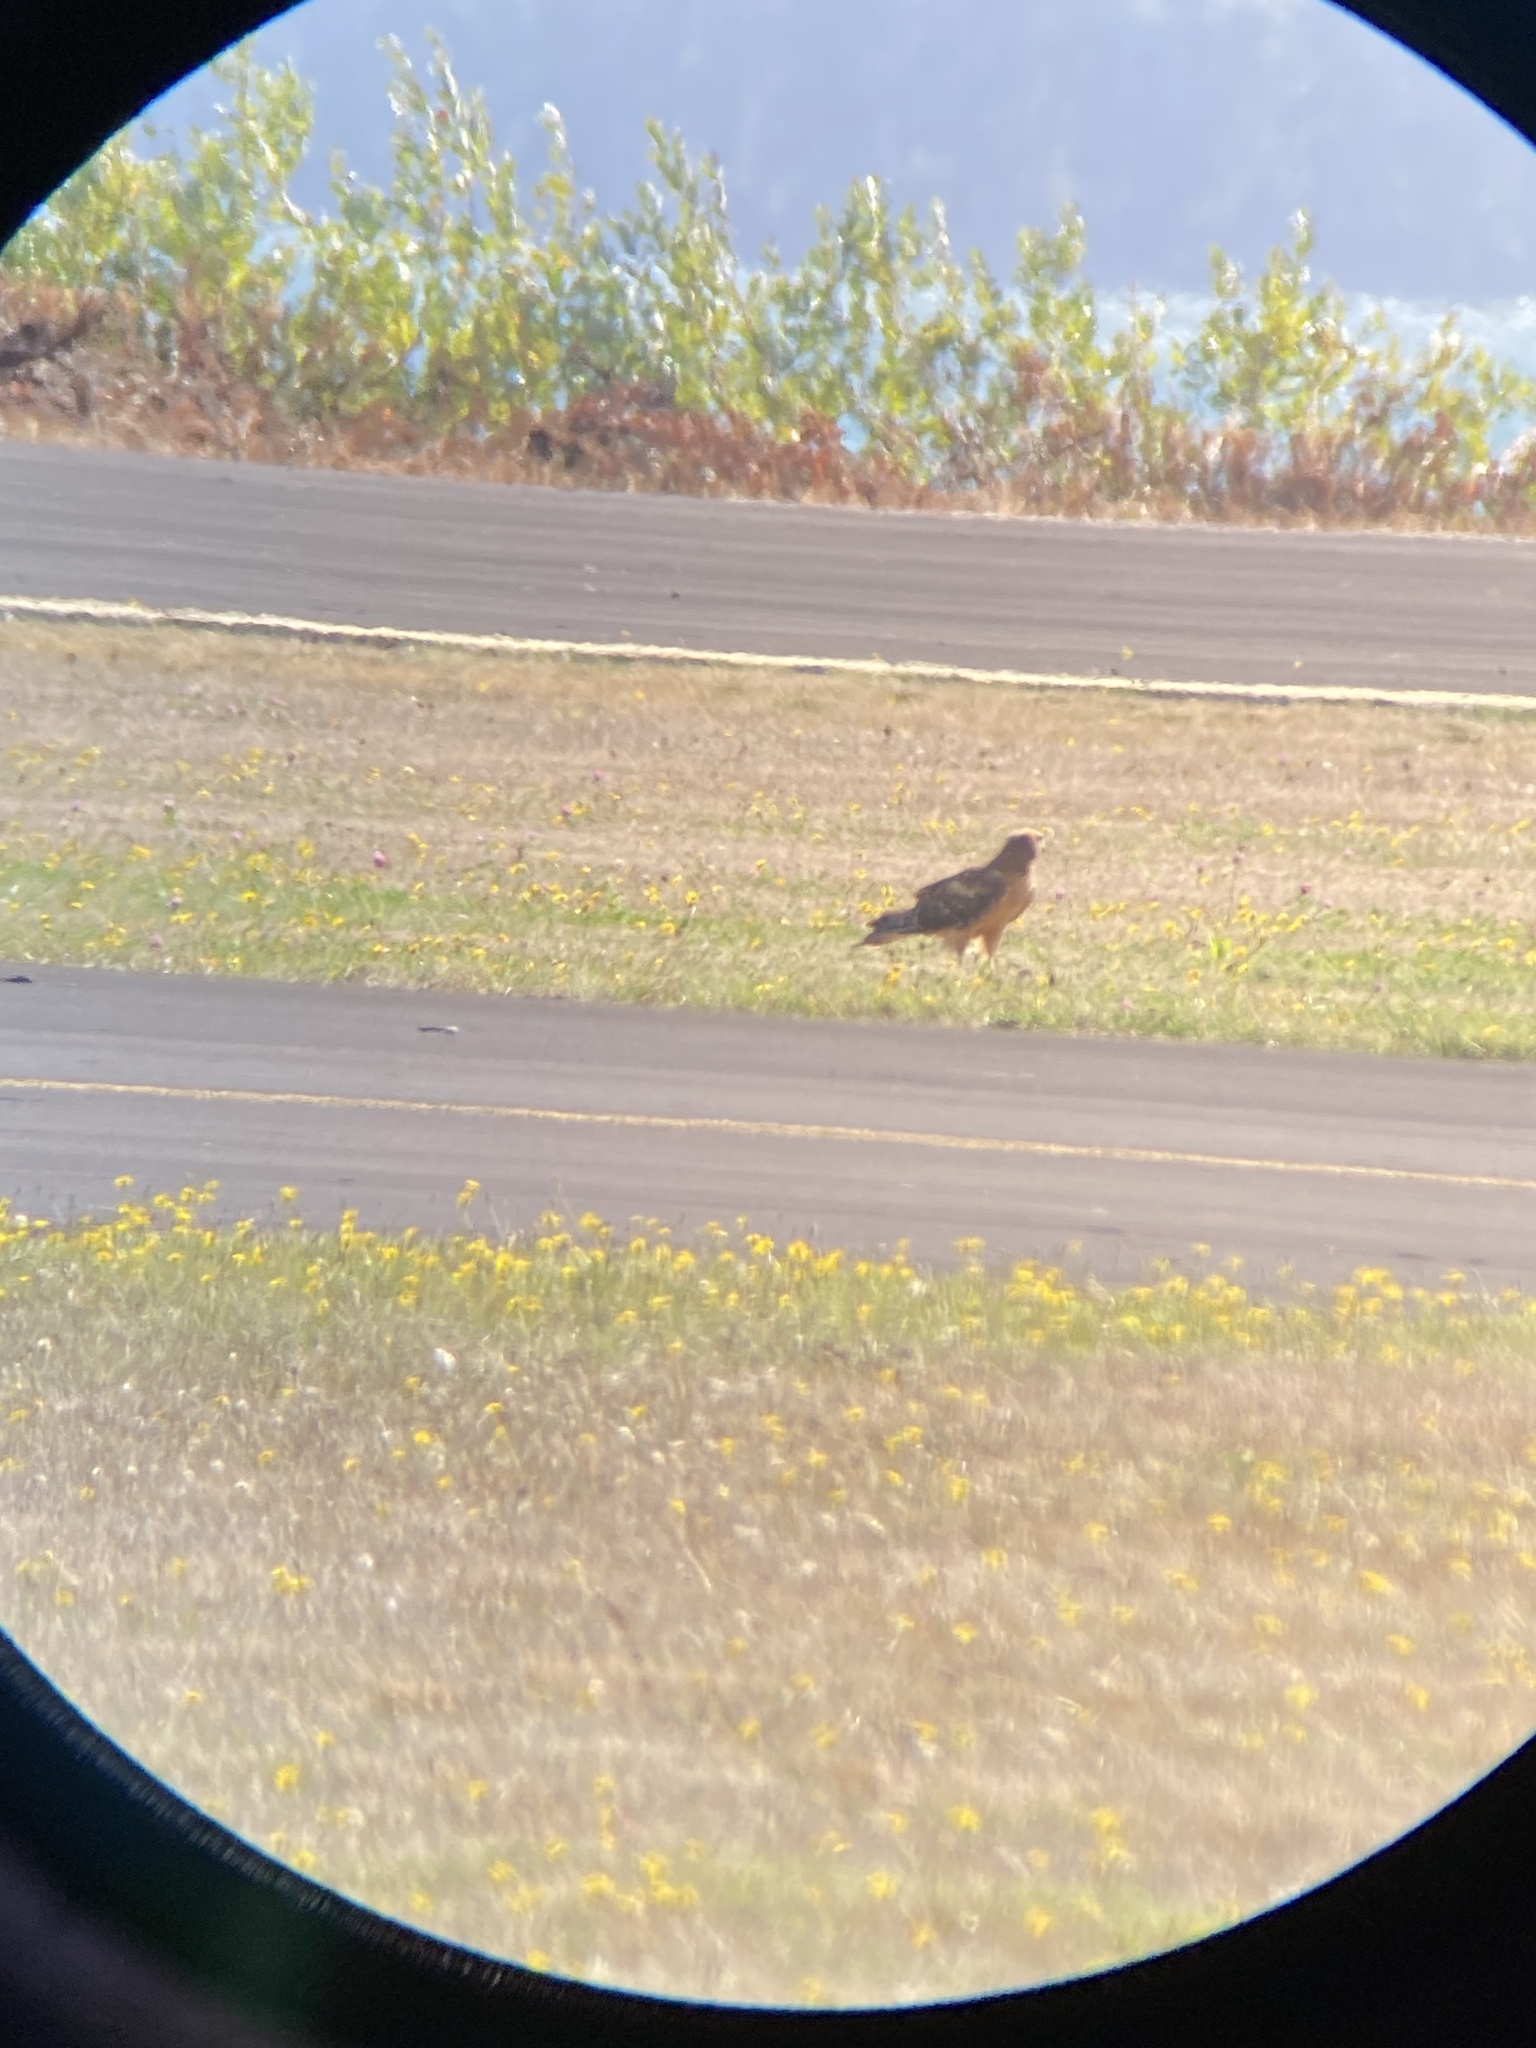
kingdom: Animalia
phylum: Chordata
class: Aves
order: Accipitriformes
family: Accipitridae
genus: Circus
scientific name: Circus cyaneus
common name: Hen harrier
